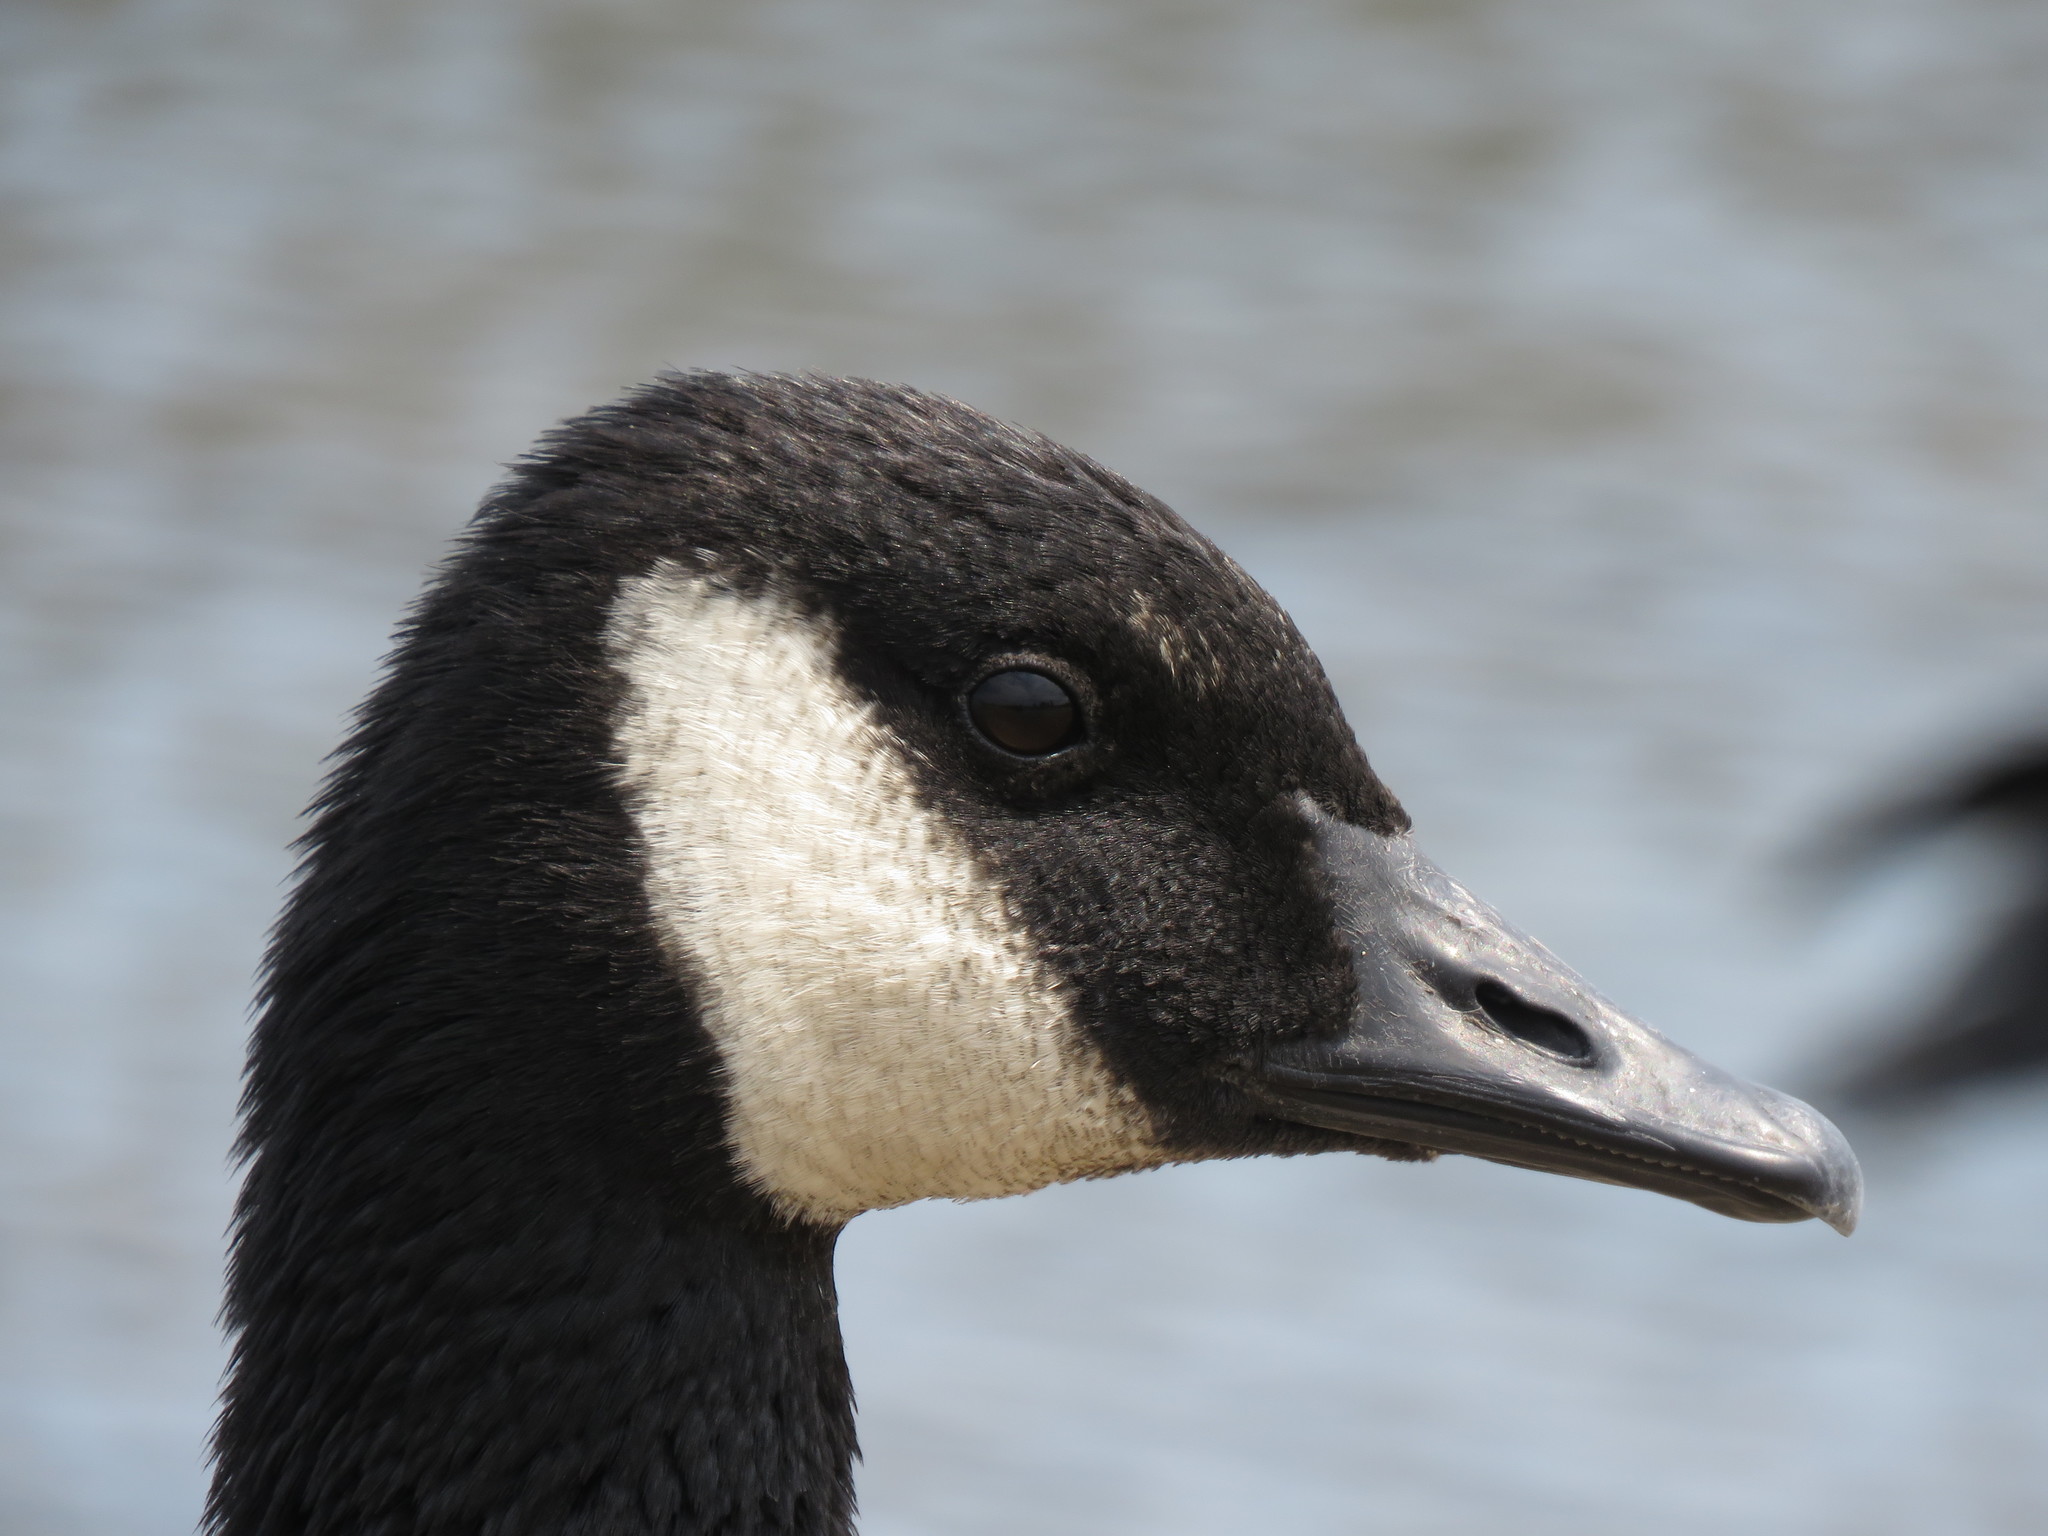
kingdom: Animalia
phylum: Chordata
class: Aves
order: Anseriformes
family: Anatidae
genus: Branta
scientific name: Branta canadensis
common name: Canada goose
